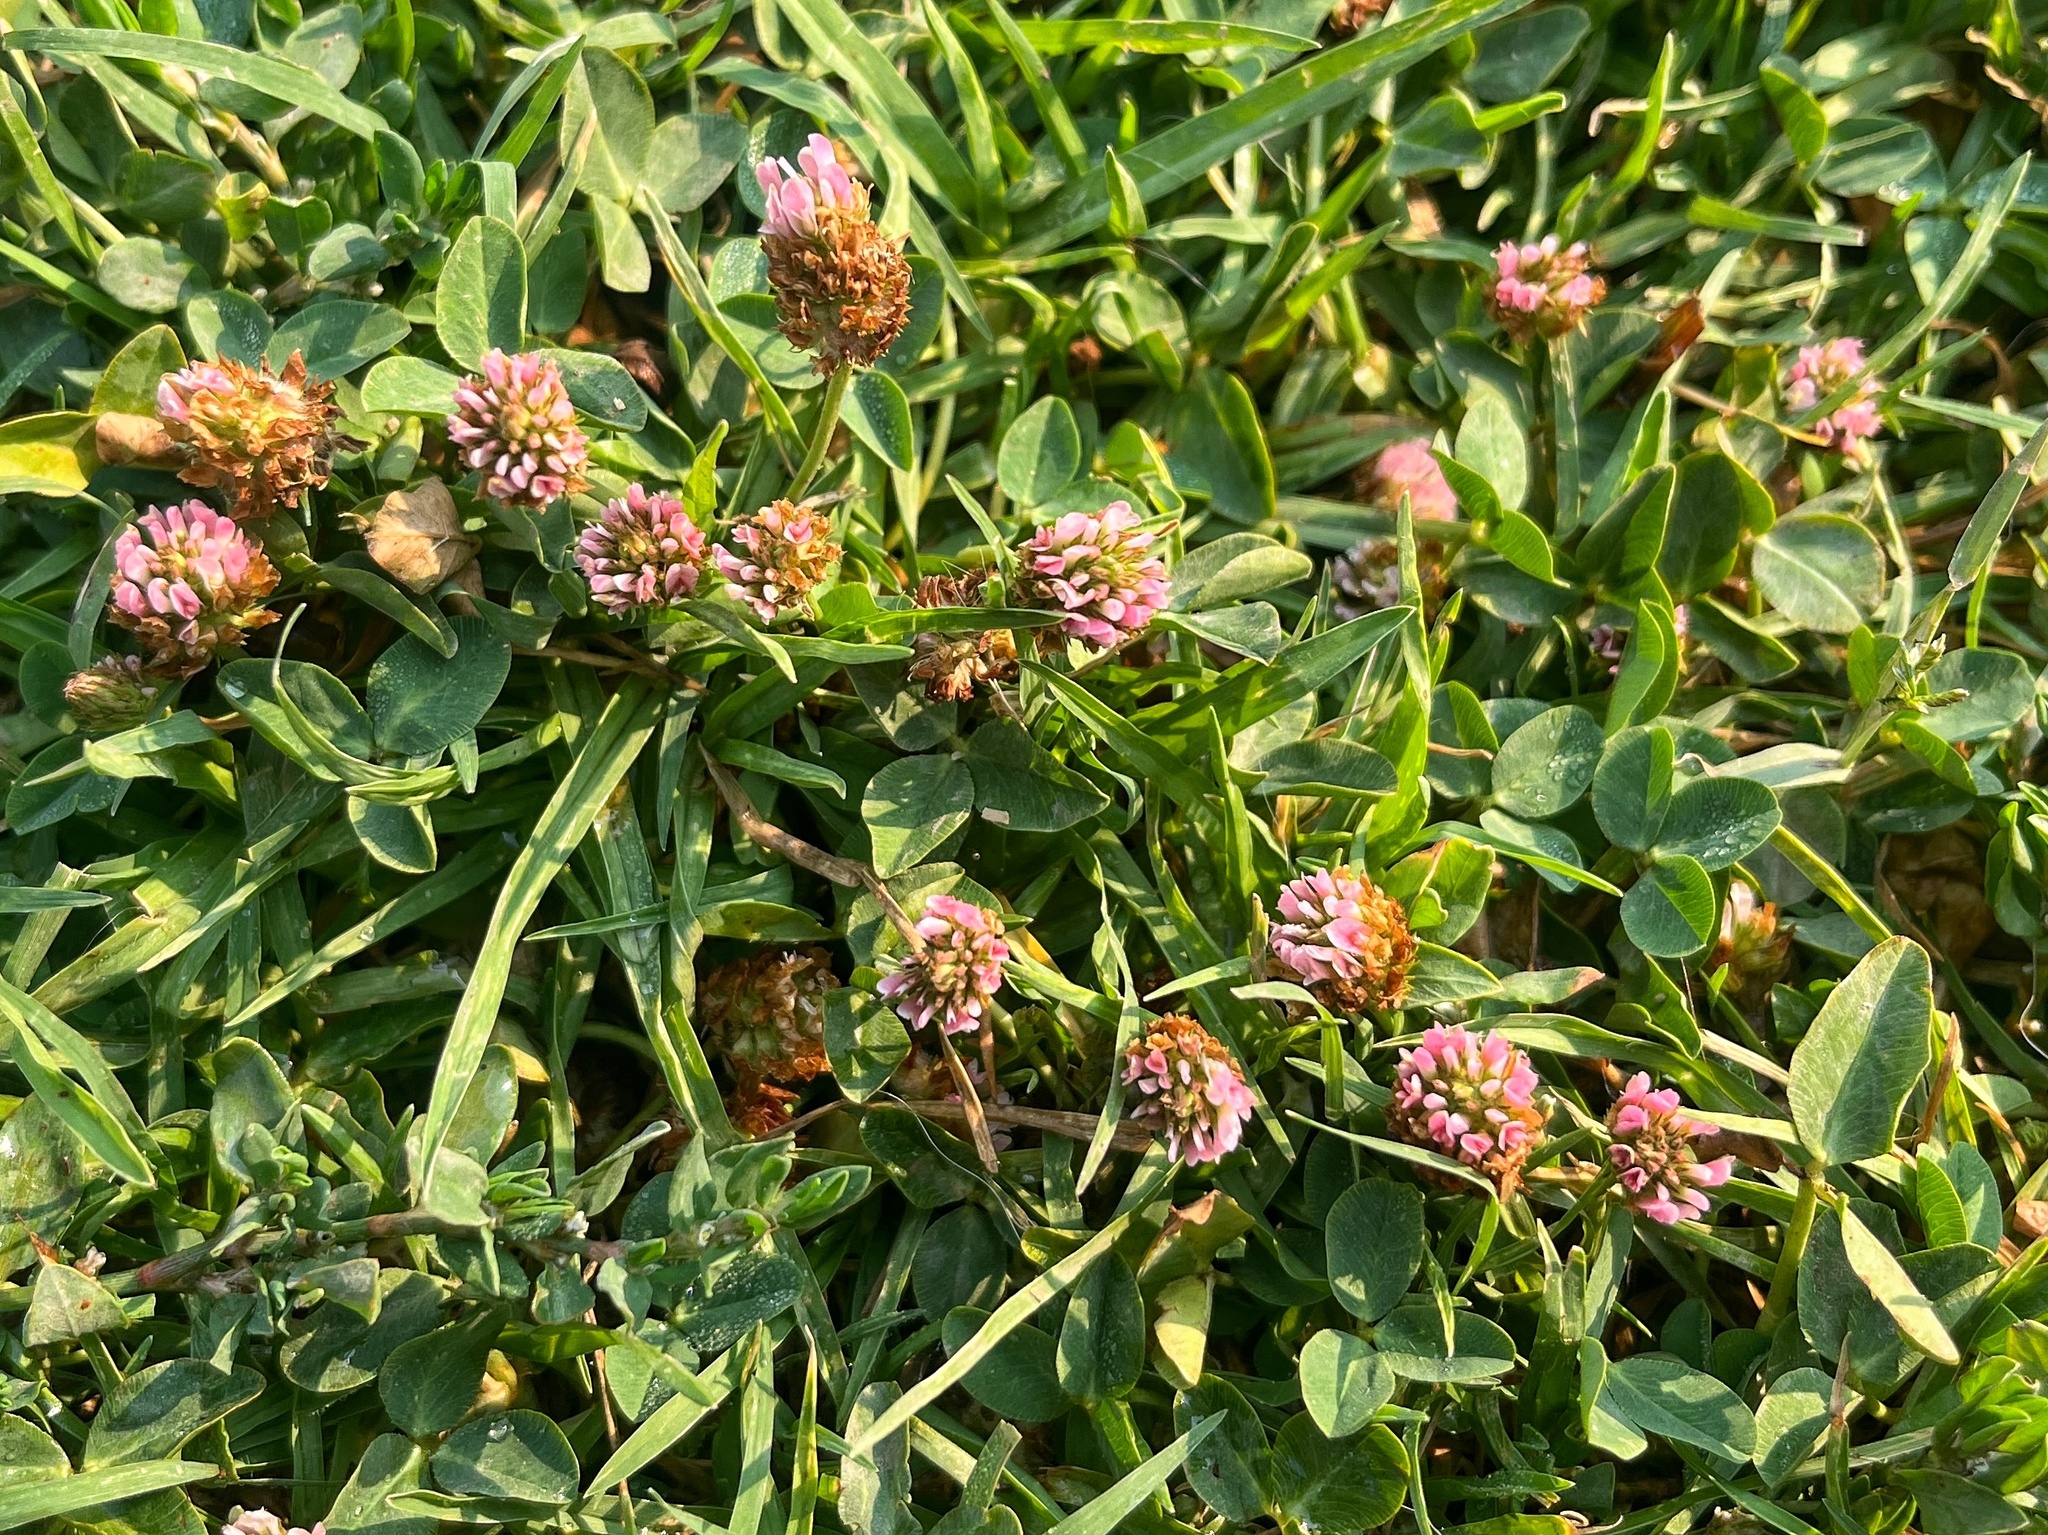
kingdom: Plantae
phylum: Tracheophyta
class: Magnoliopsida
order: Fabales
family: Fabaceae
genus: Trifolium
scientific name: Trifolium fragiferum
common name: Strawberry clover
